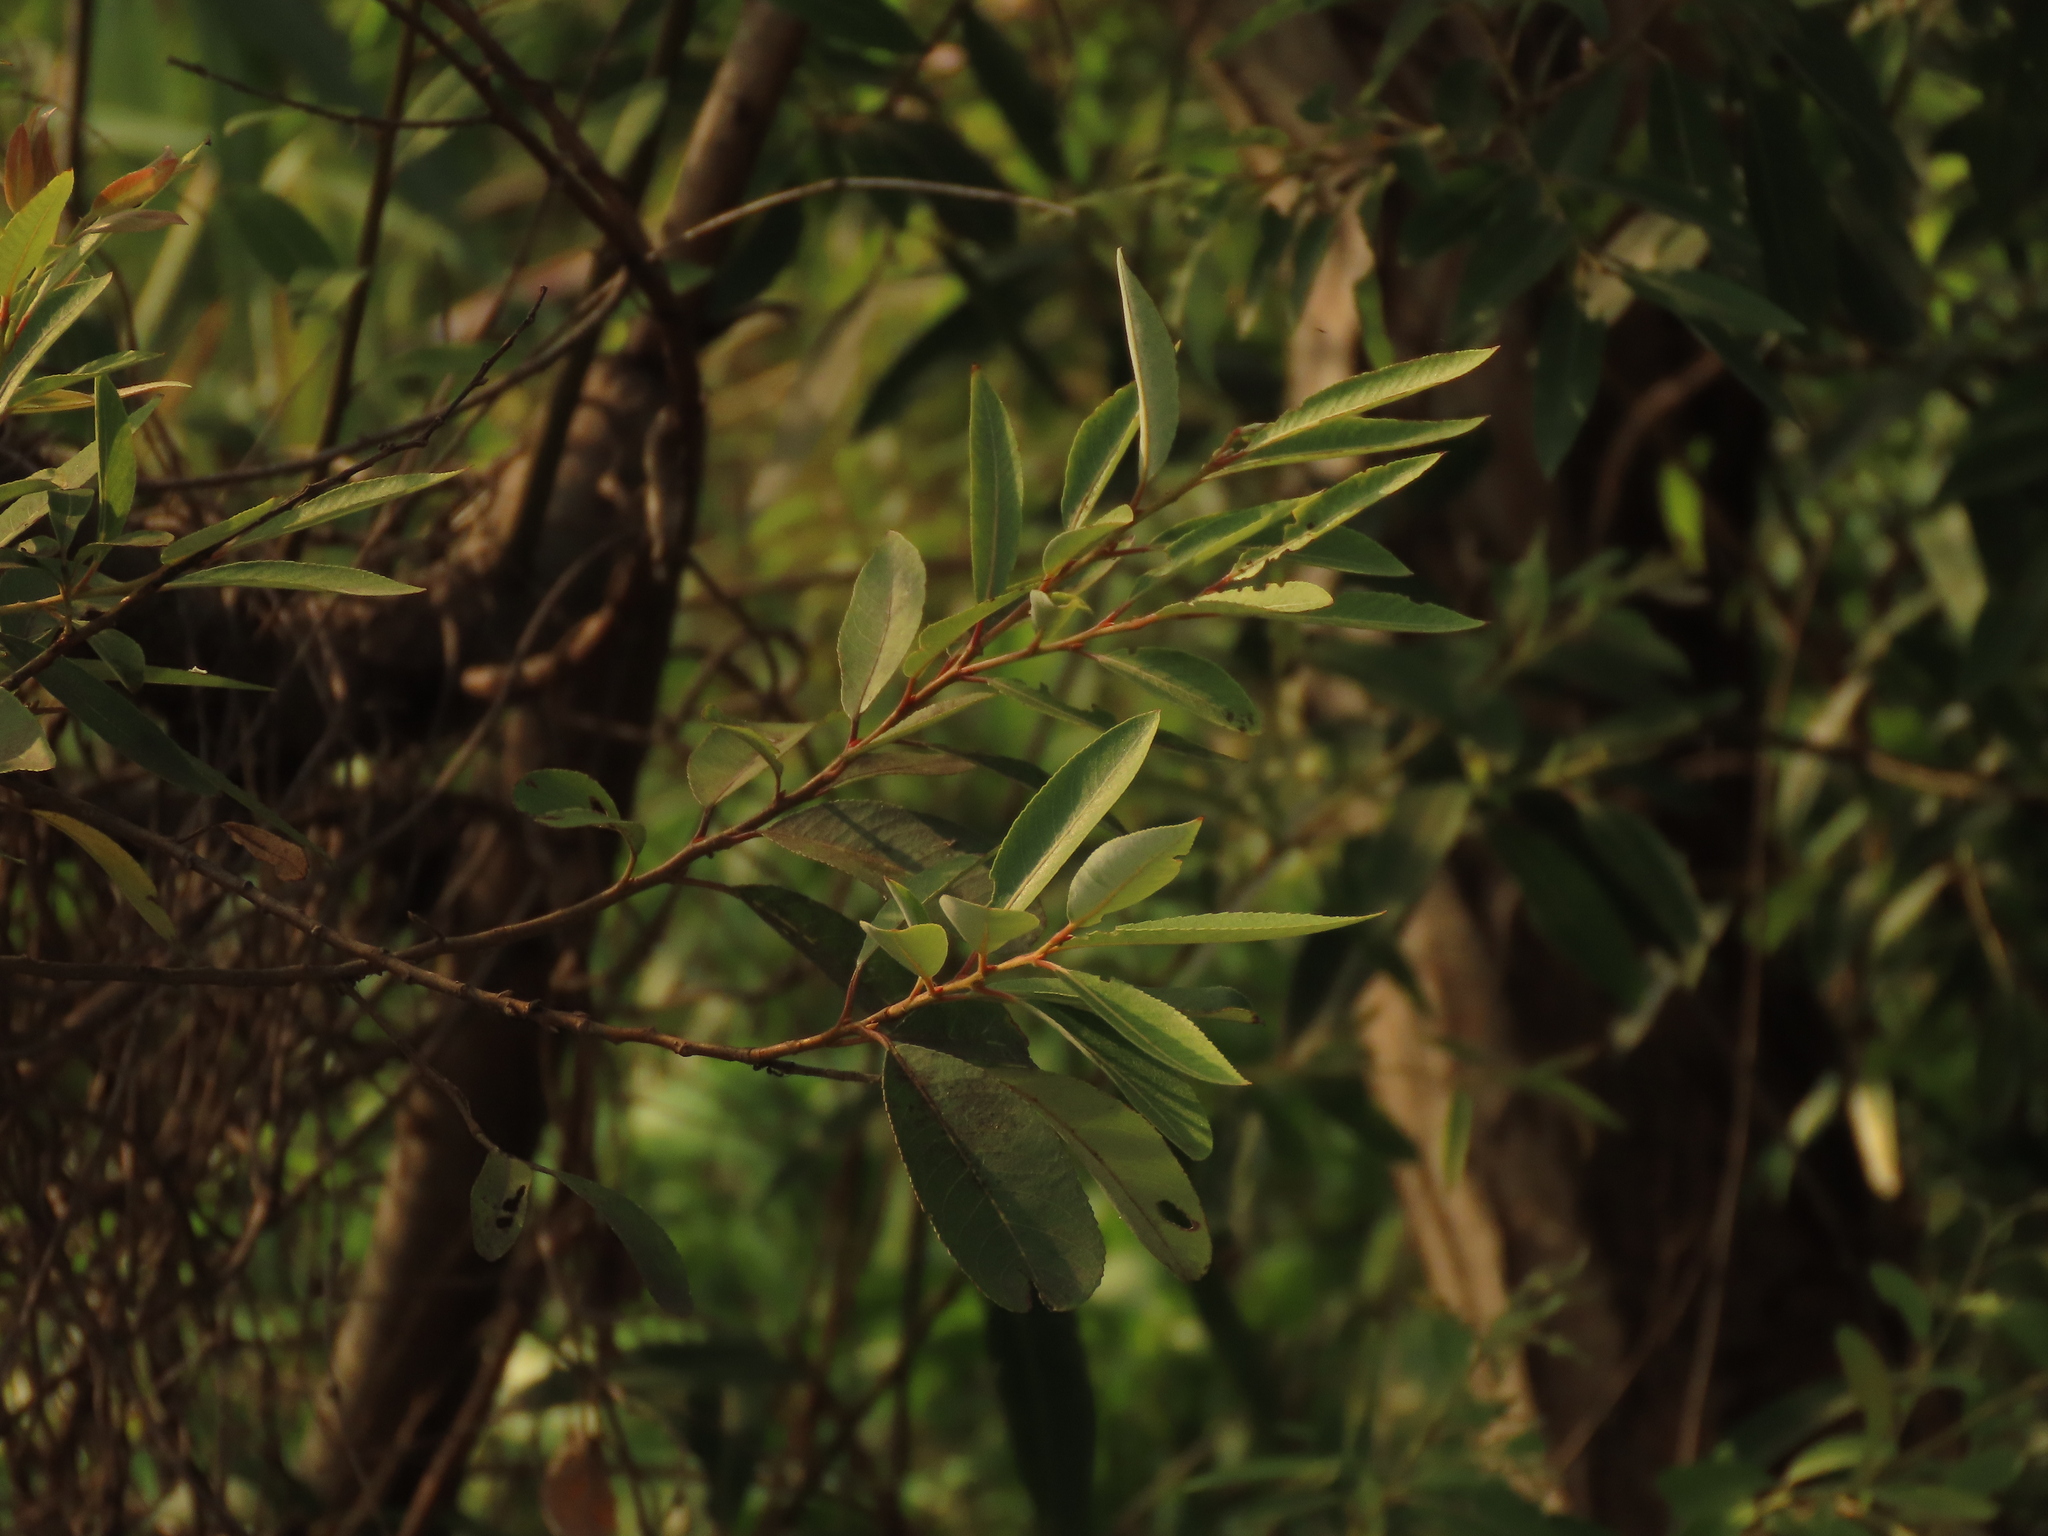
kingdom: Plantae
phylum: Tracheophyta
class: Magnoliopsida
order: Malpighiales
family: Salicaceae
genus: Salix
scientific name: Salix mesnyi
